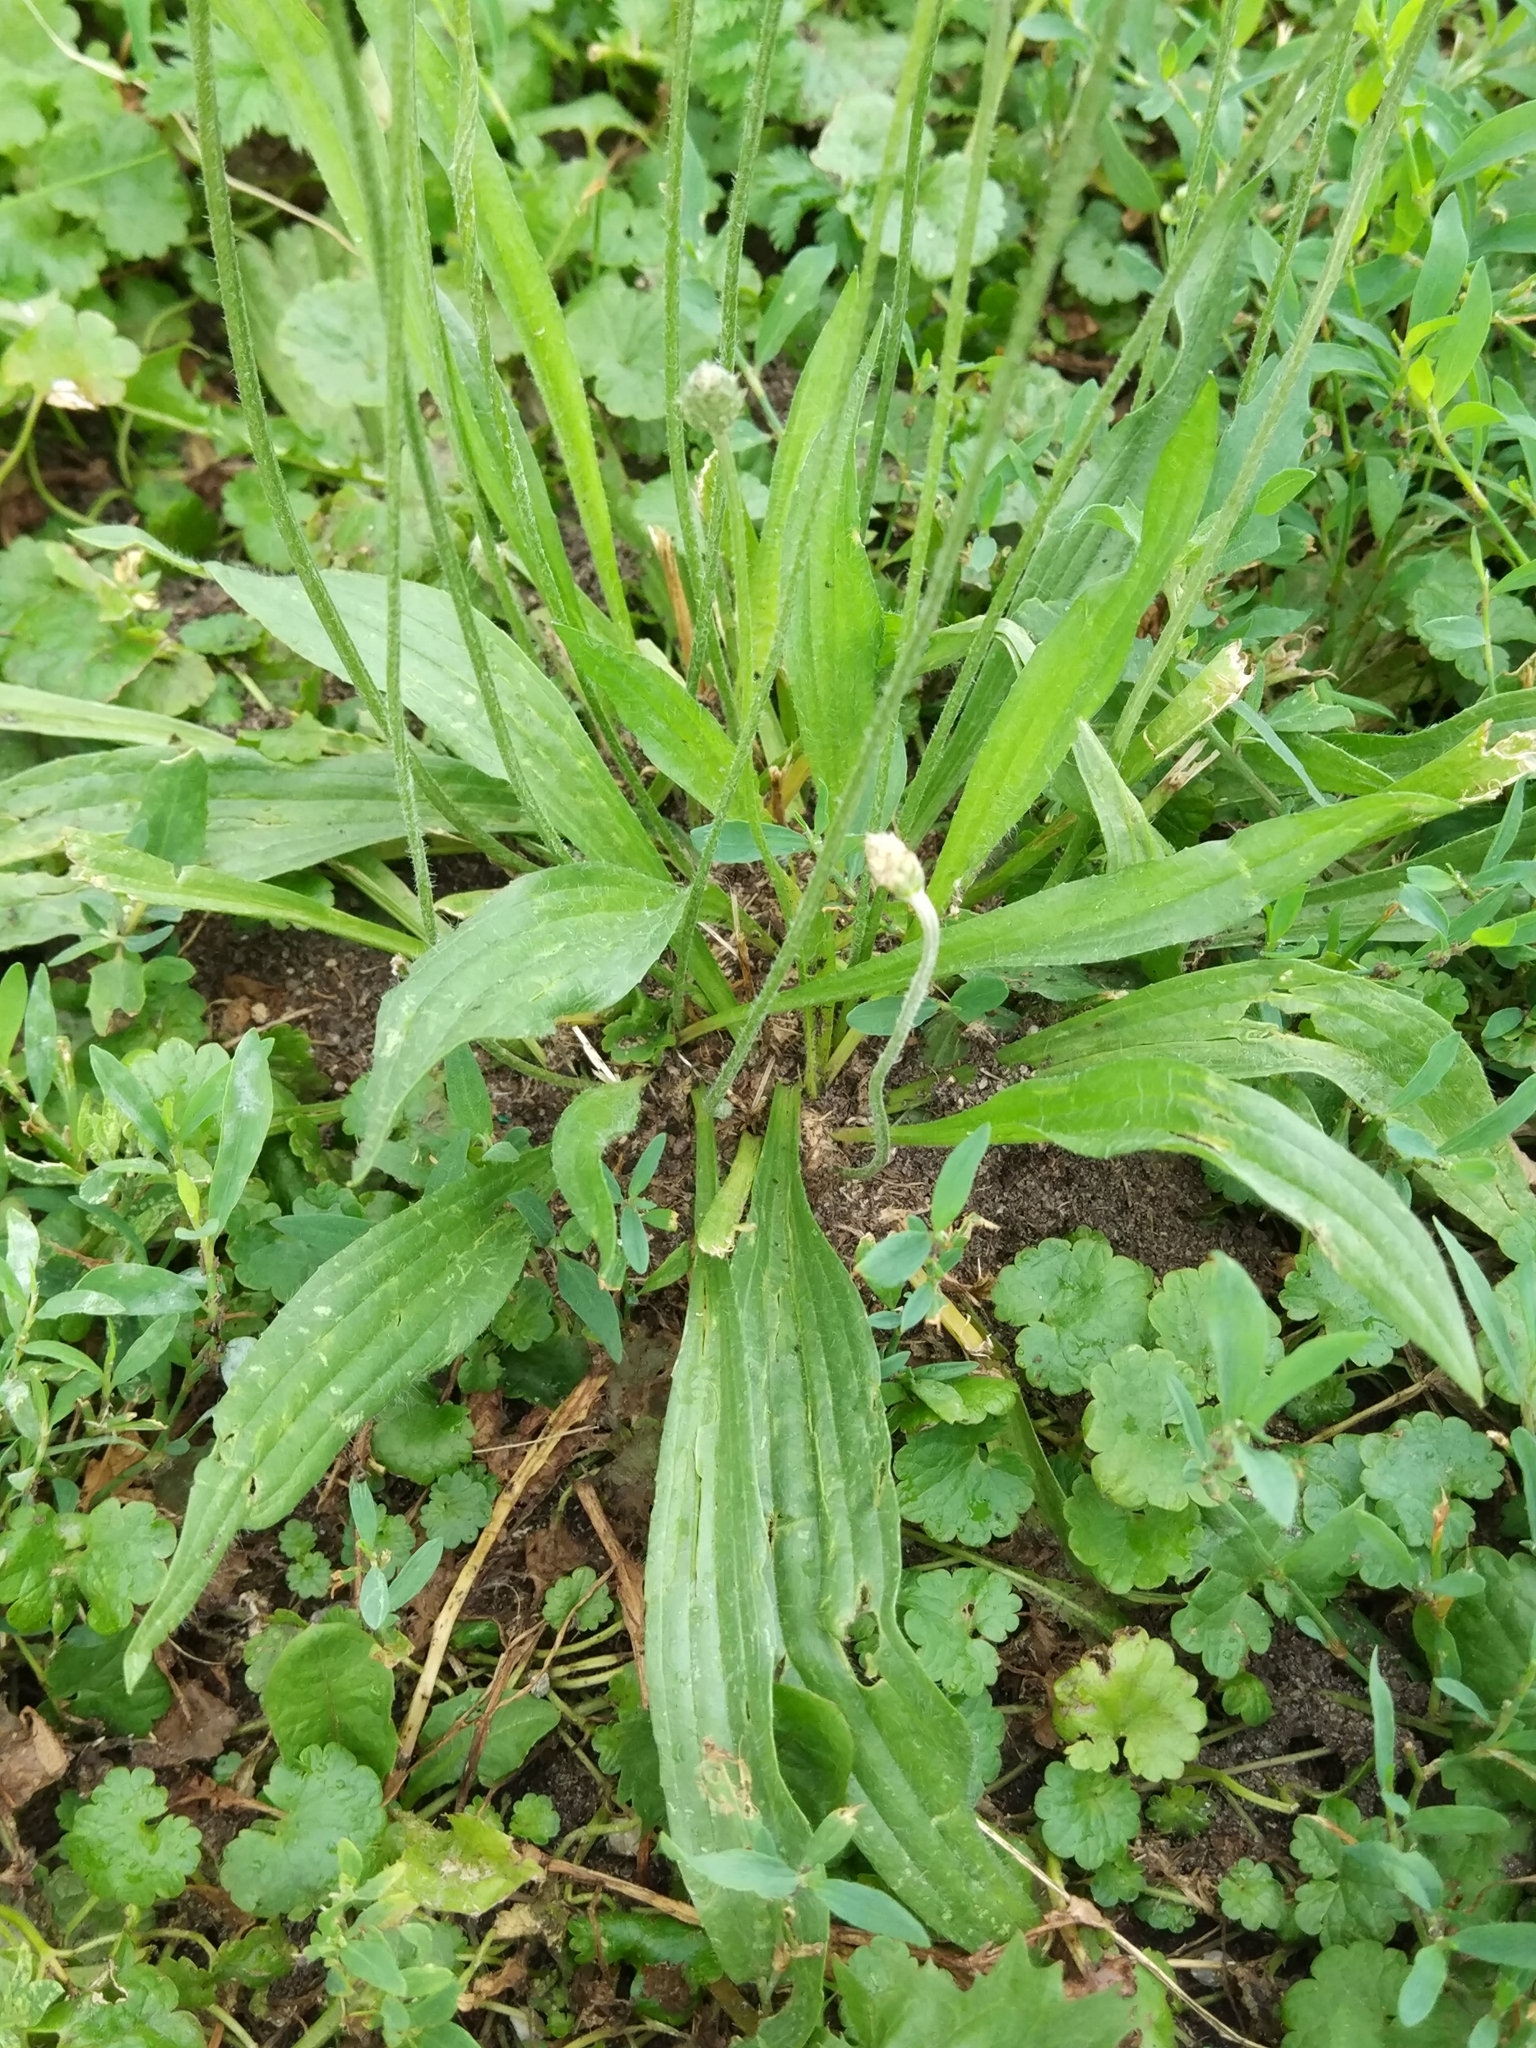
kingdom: Plantae
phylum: Tracheophyta
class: Magnoliopsida
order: Lamiales
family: Plantaginaceae
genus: Plantago
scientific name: Plantago lanceolata
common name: Ribwort plantain
